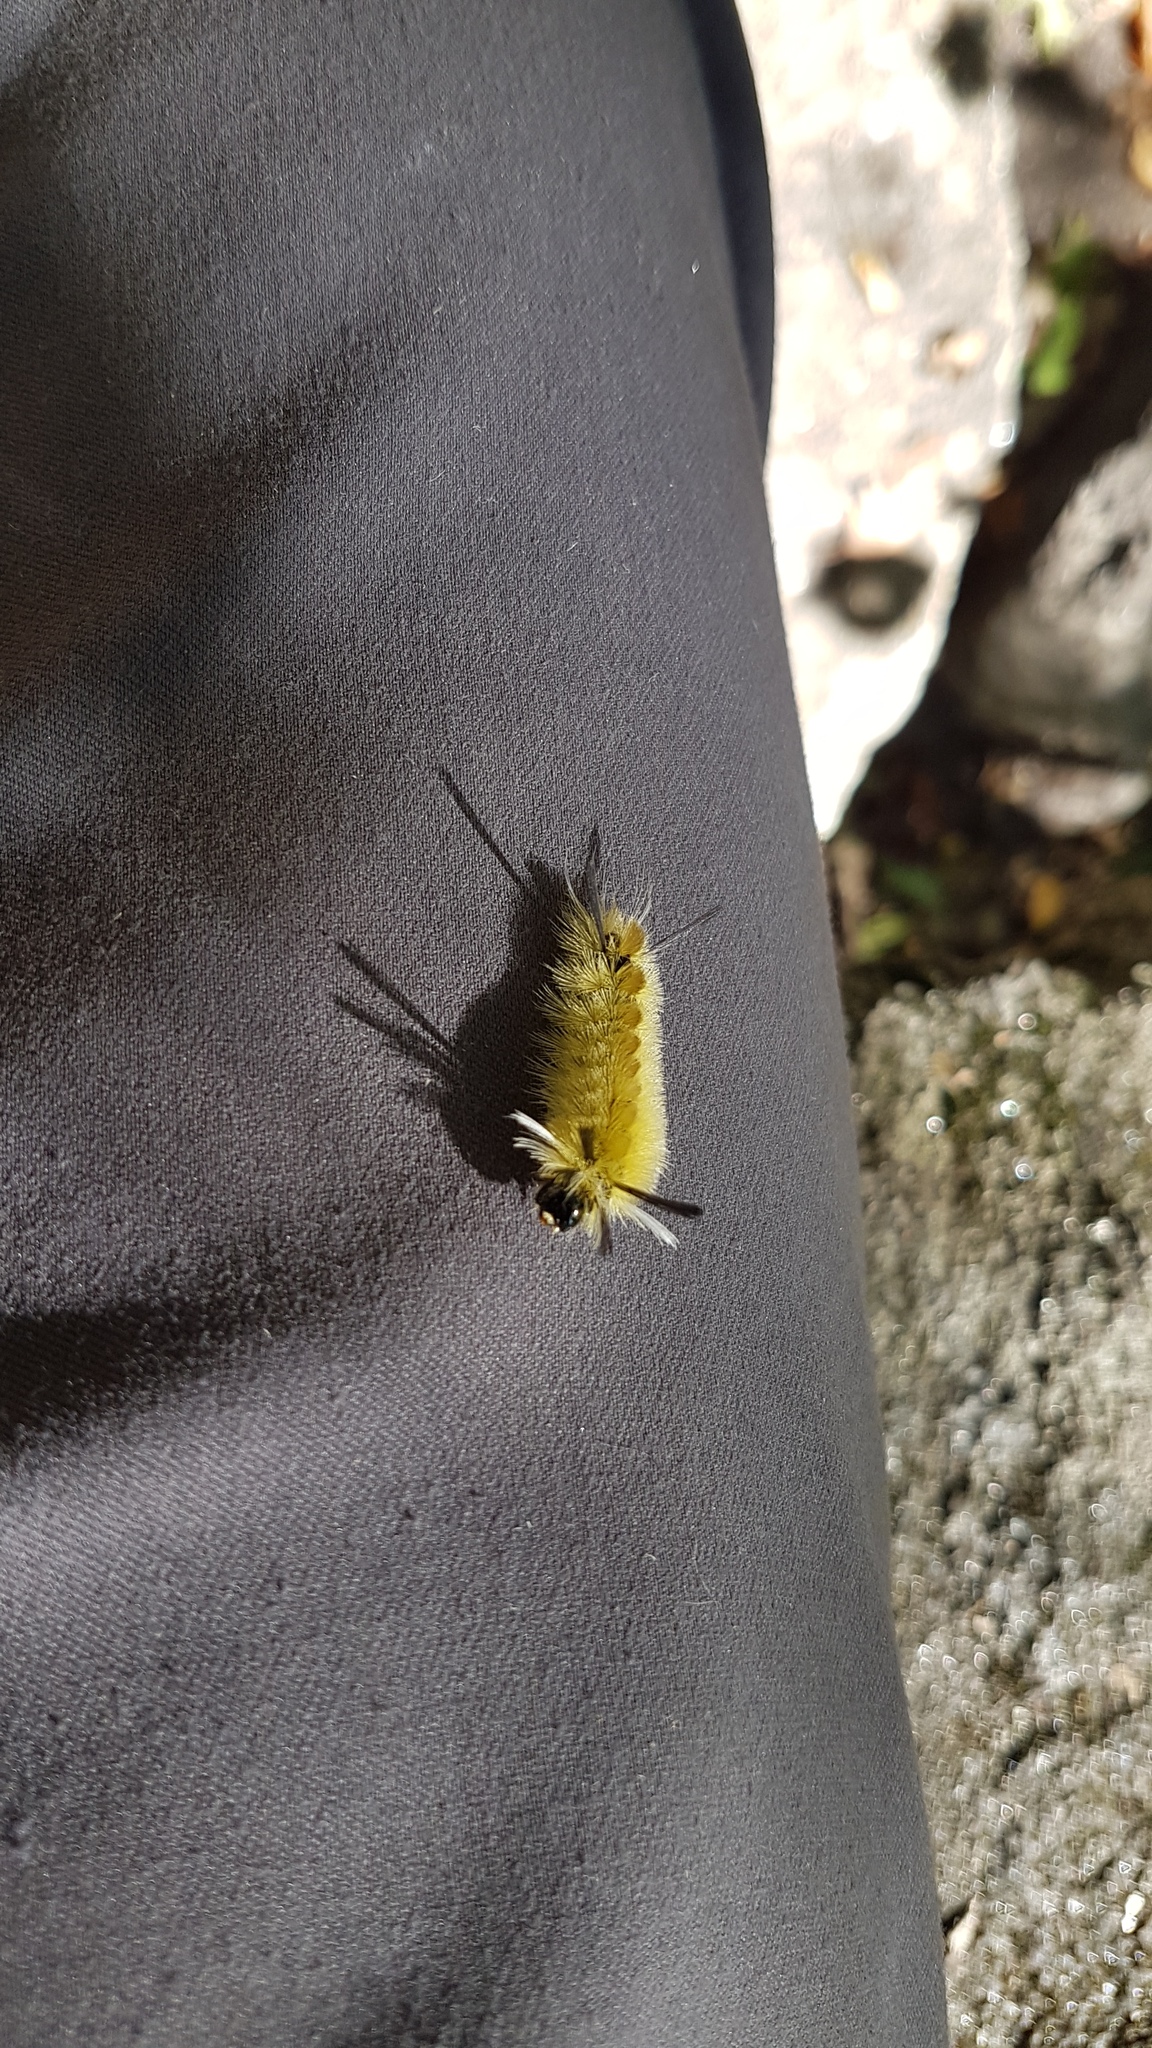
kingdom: Animalia
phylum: Arthropoda
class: Insecta
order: Lepidoptera
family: Erebidae
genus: Halysidota
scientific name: Halysidota tessellaris
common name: Banded tussock moth
